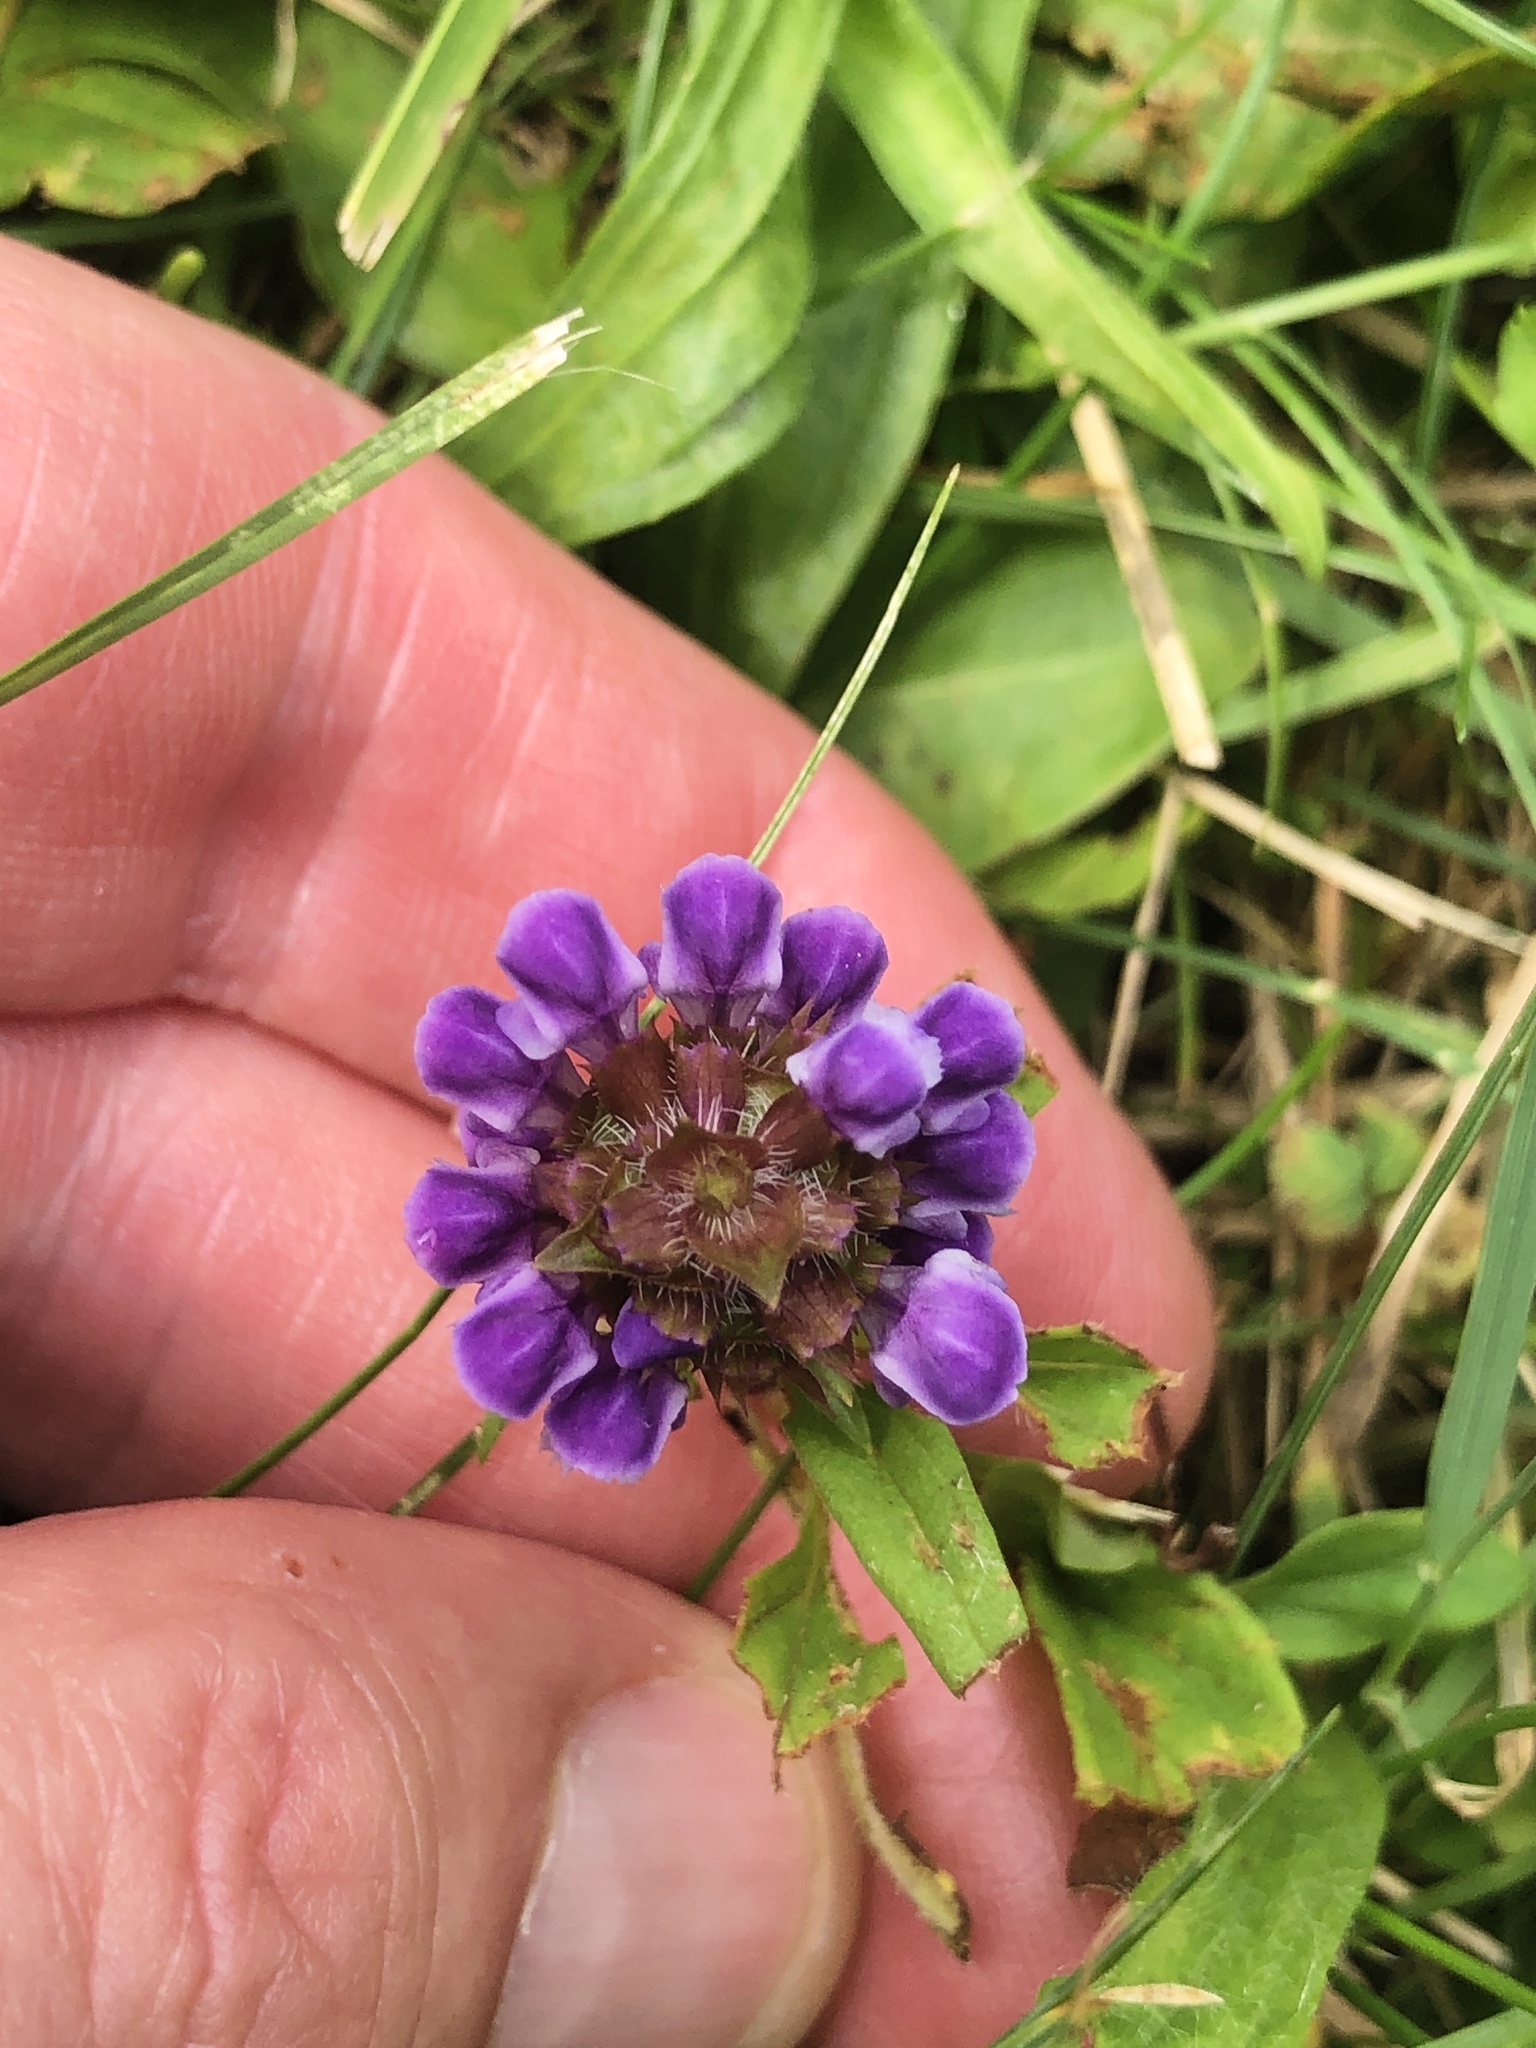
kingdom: Plantae
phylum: Tracheophyta
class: Magnoliopsida
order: Lamiales
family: Lamiaceae
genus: Prunella
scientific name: Prunella vulgaris
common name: Heal-all
